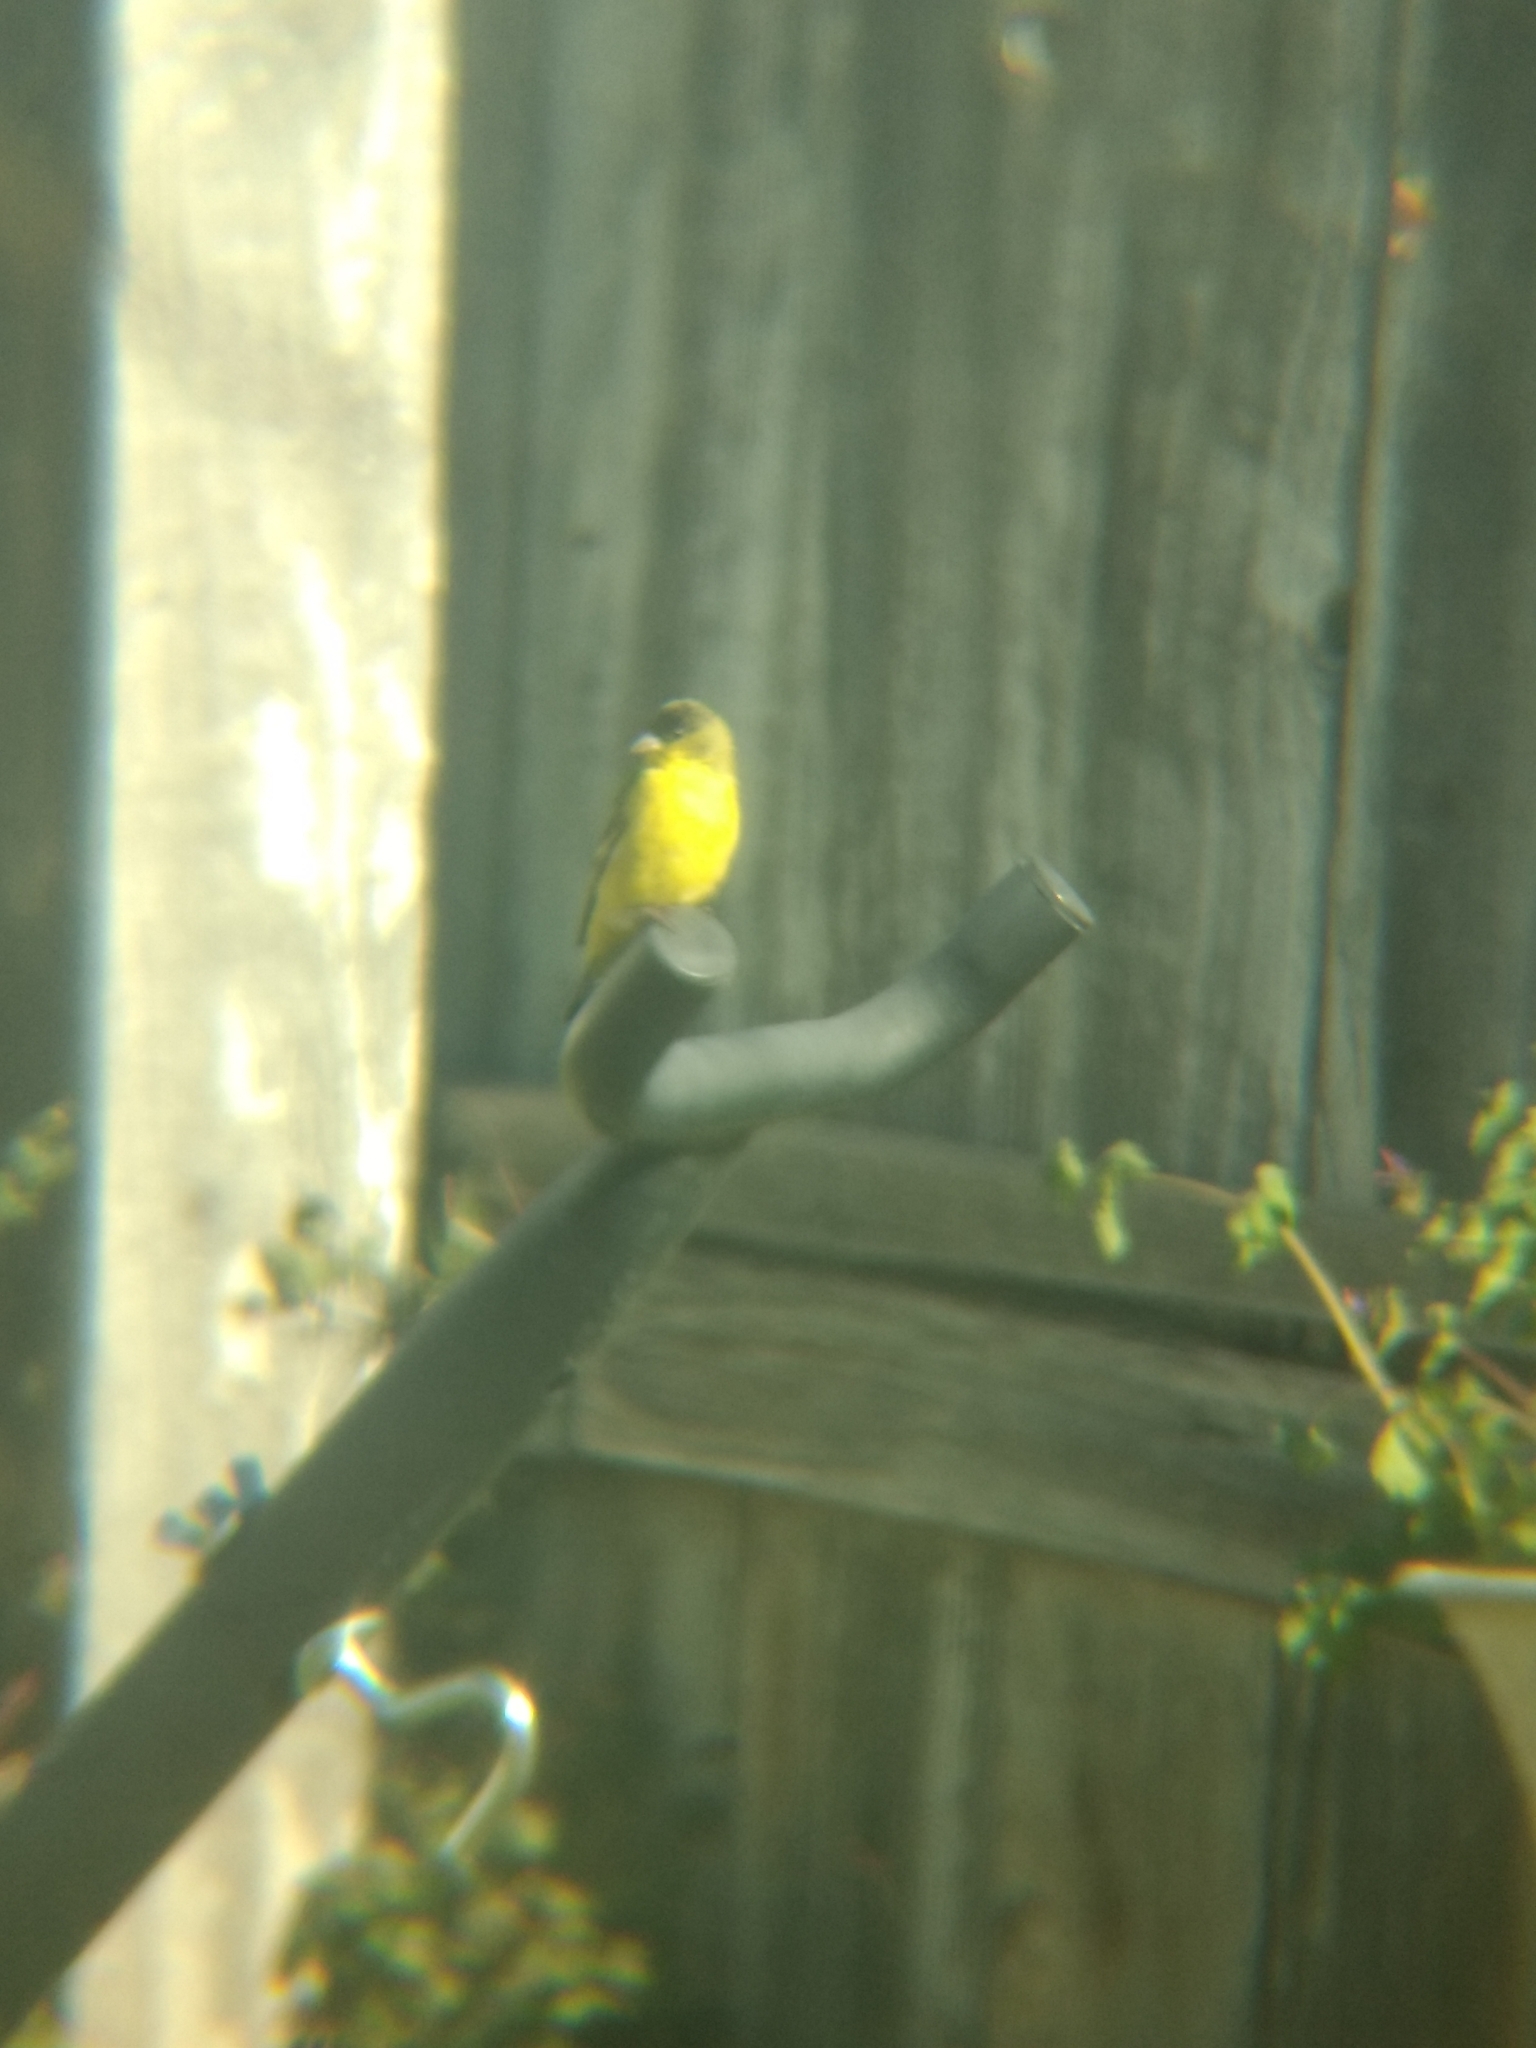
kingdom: Animalia
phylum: Chordata
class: Aves
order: Passeriformes
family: Fringillidae
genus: Spinus
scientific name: Spinus psaltria
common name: Lesser goldfinch
